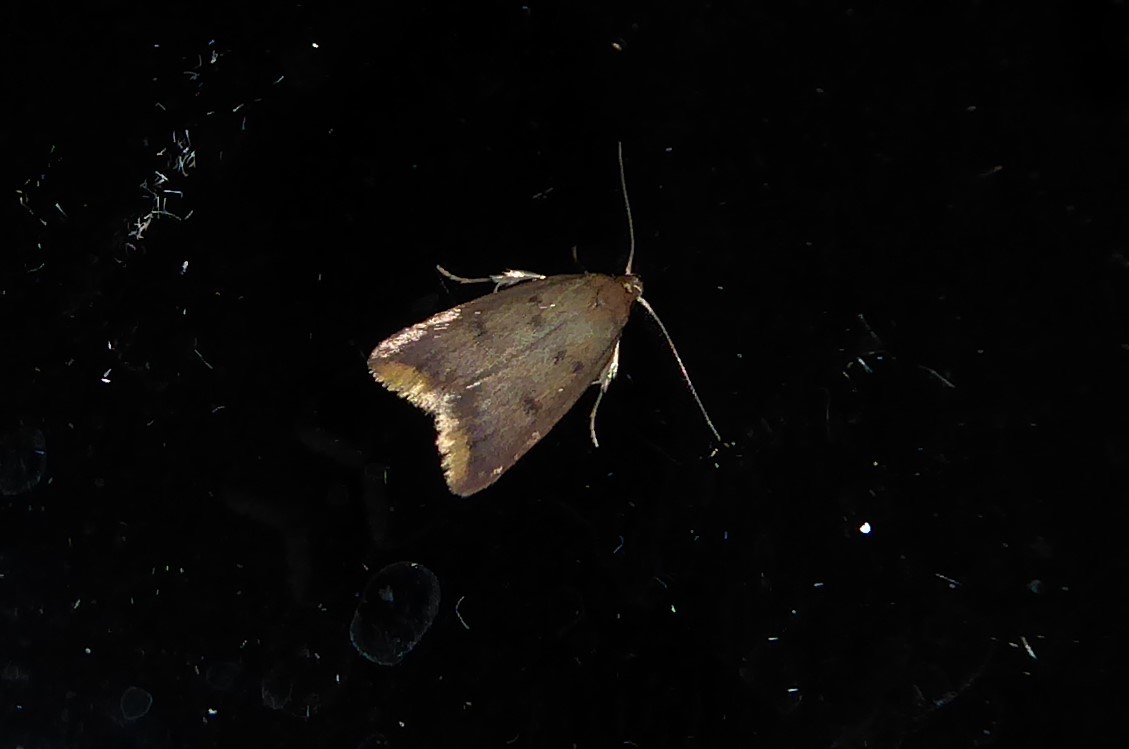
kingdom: Animalia
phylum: Arthropoda
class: Insecta
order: Lepidoptera
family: Oecophoridae
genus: Tachystola
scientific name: Tachystola acroxantha
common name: Ruddy streak
